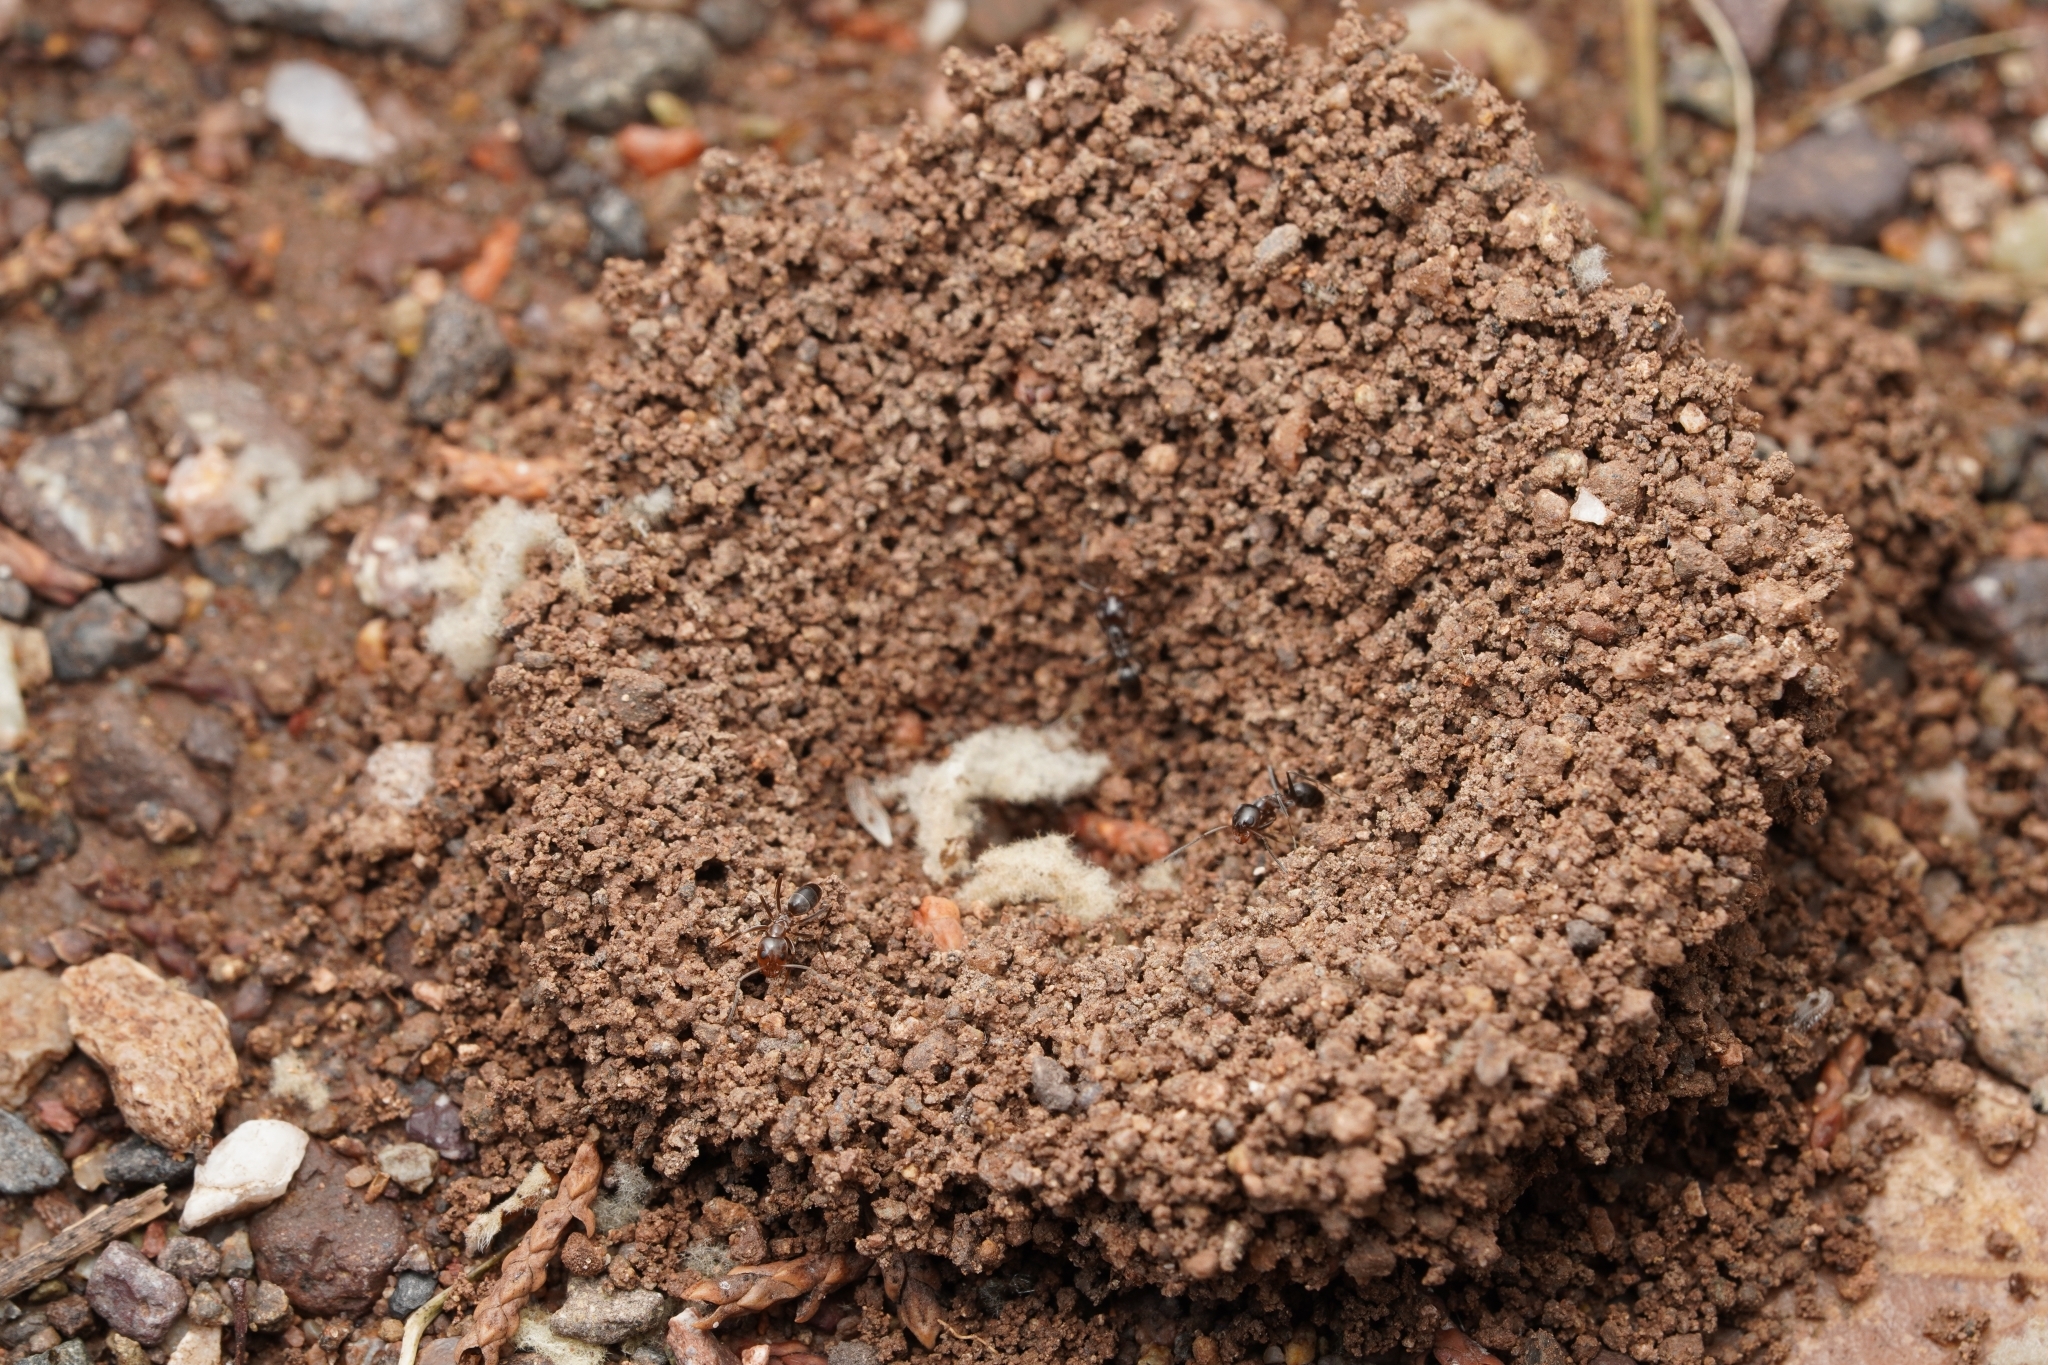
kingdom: Animalia
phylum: Arthropoda
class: Insecta
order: Hymenoptera
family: Formicidae
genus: Dorymyrmex
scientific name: Dorymyrmex
